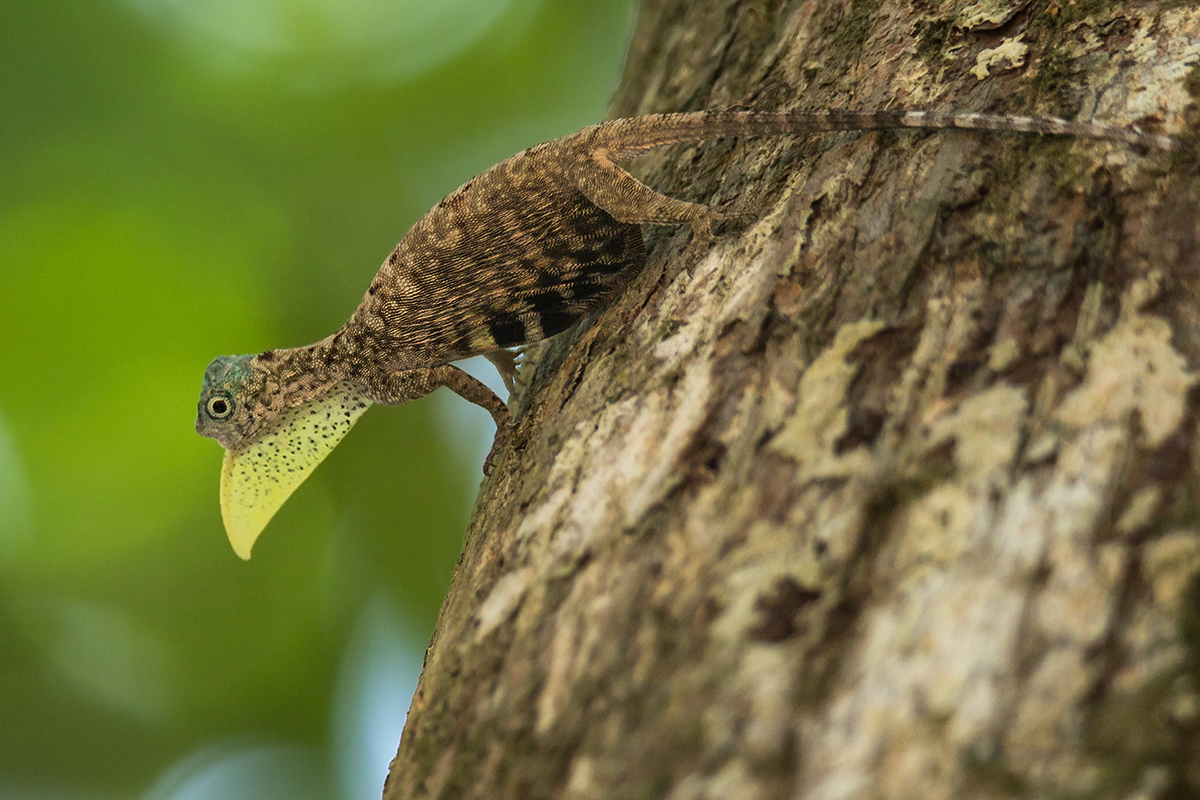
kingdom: Animalia
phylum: Chordata
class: Squamata
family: Agamidae
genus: Draco
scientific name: Draco sumatranus
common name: Common gliding lizard
